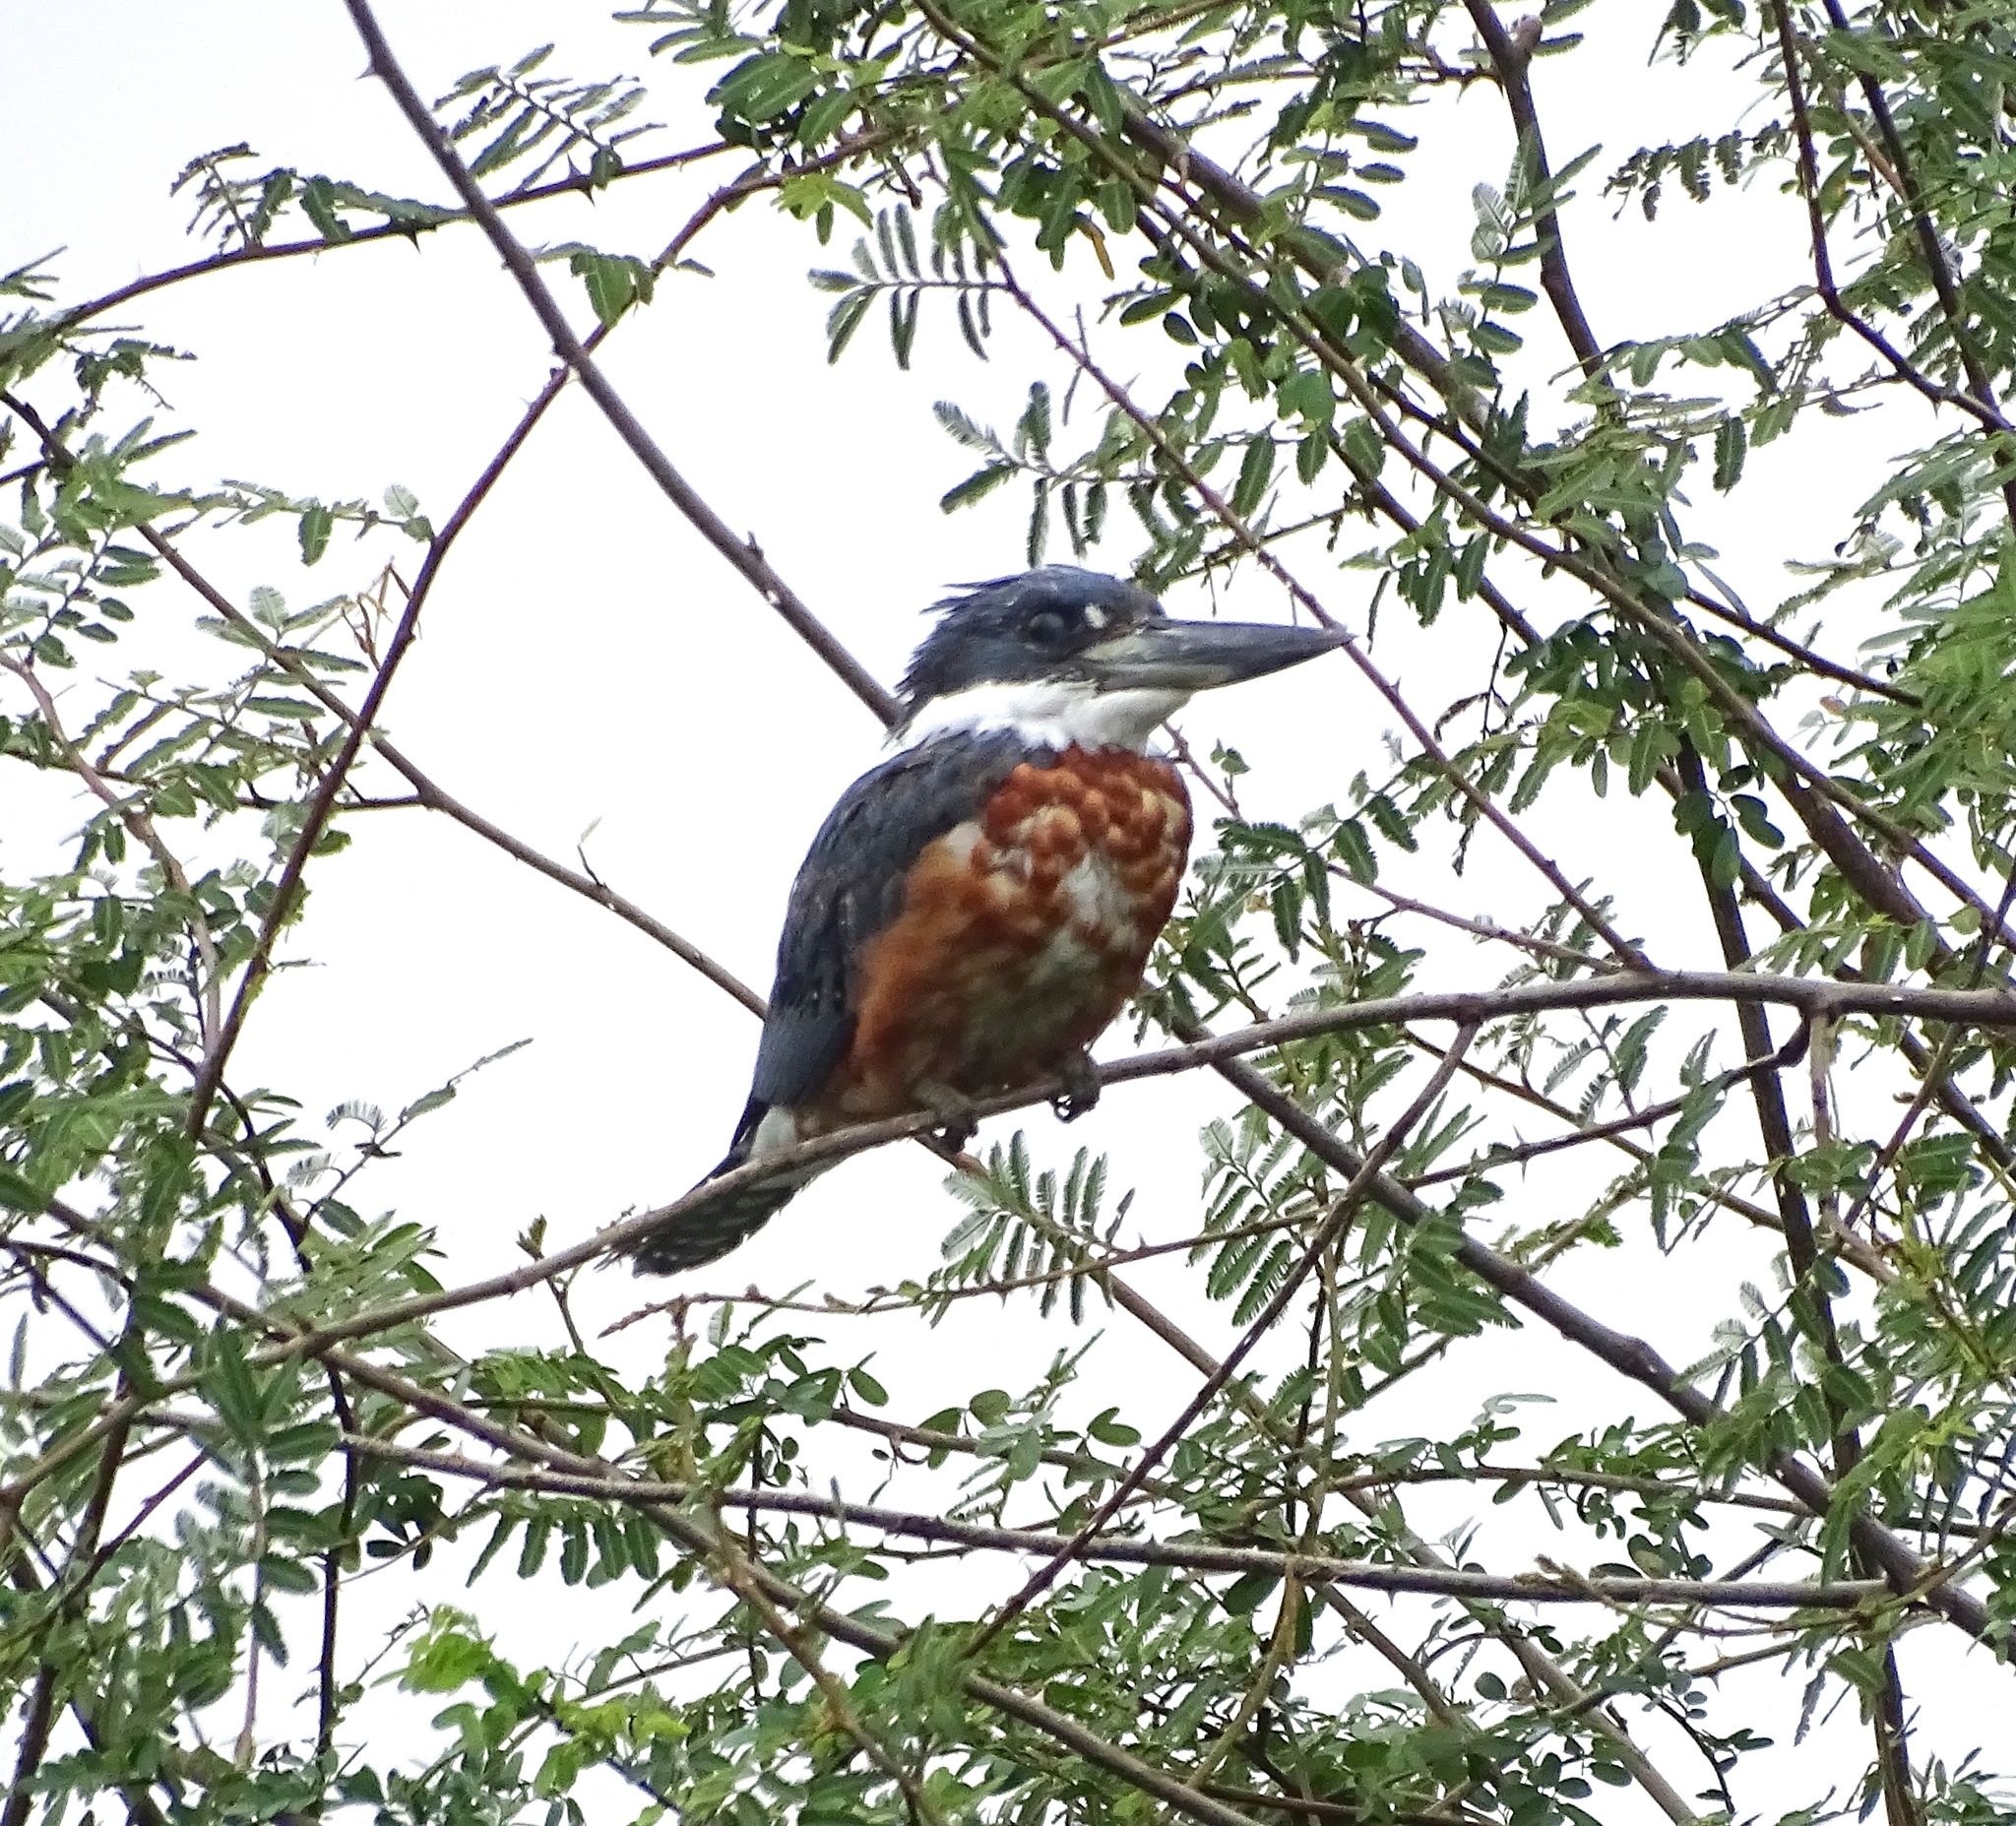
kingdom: Animalia
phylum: Chordata
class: Aves
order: Coraciiformes
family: Alcedinidae
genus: Megaceryle
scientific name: Megaceryle torquata
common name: Ringed kingfisher
